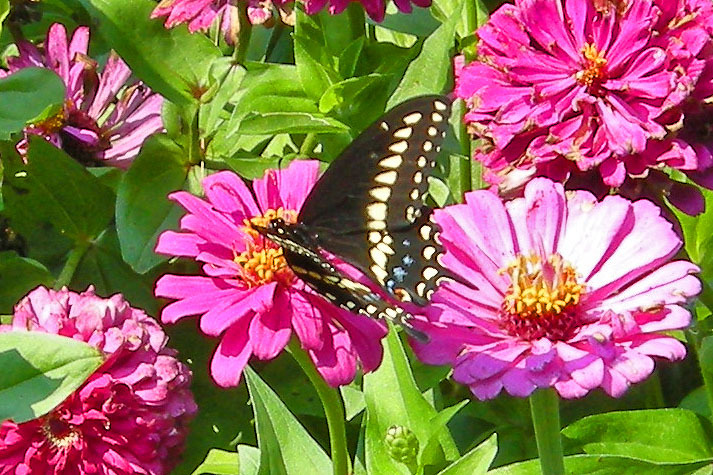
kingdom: Animalia
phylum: Arthropoda
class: Insecta
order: Lepidoptera
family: Papilionidae
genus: Papilio
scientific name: Papilio polyxenes
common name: Black swallowtail
